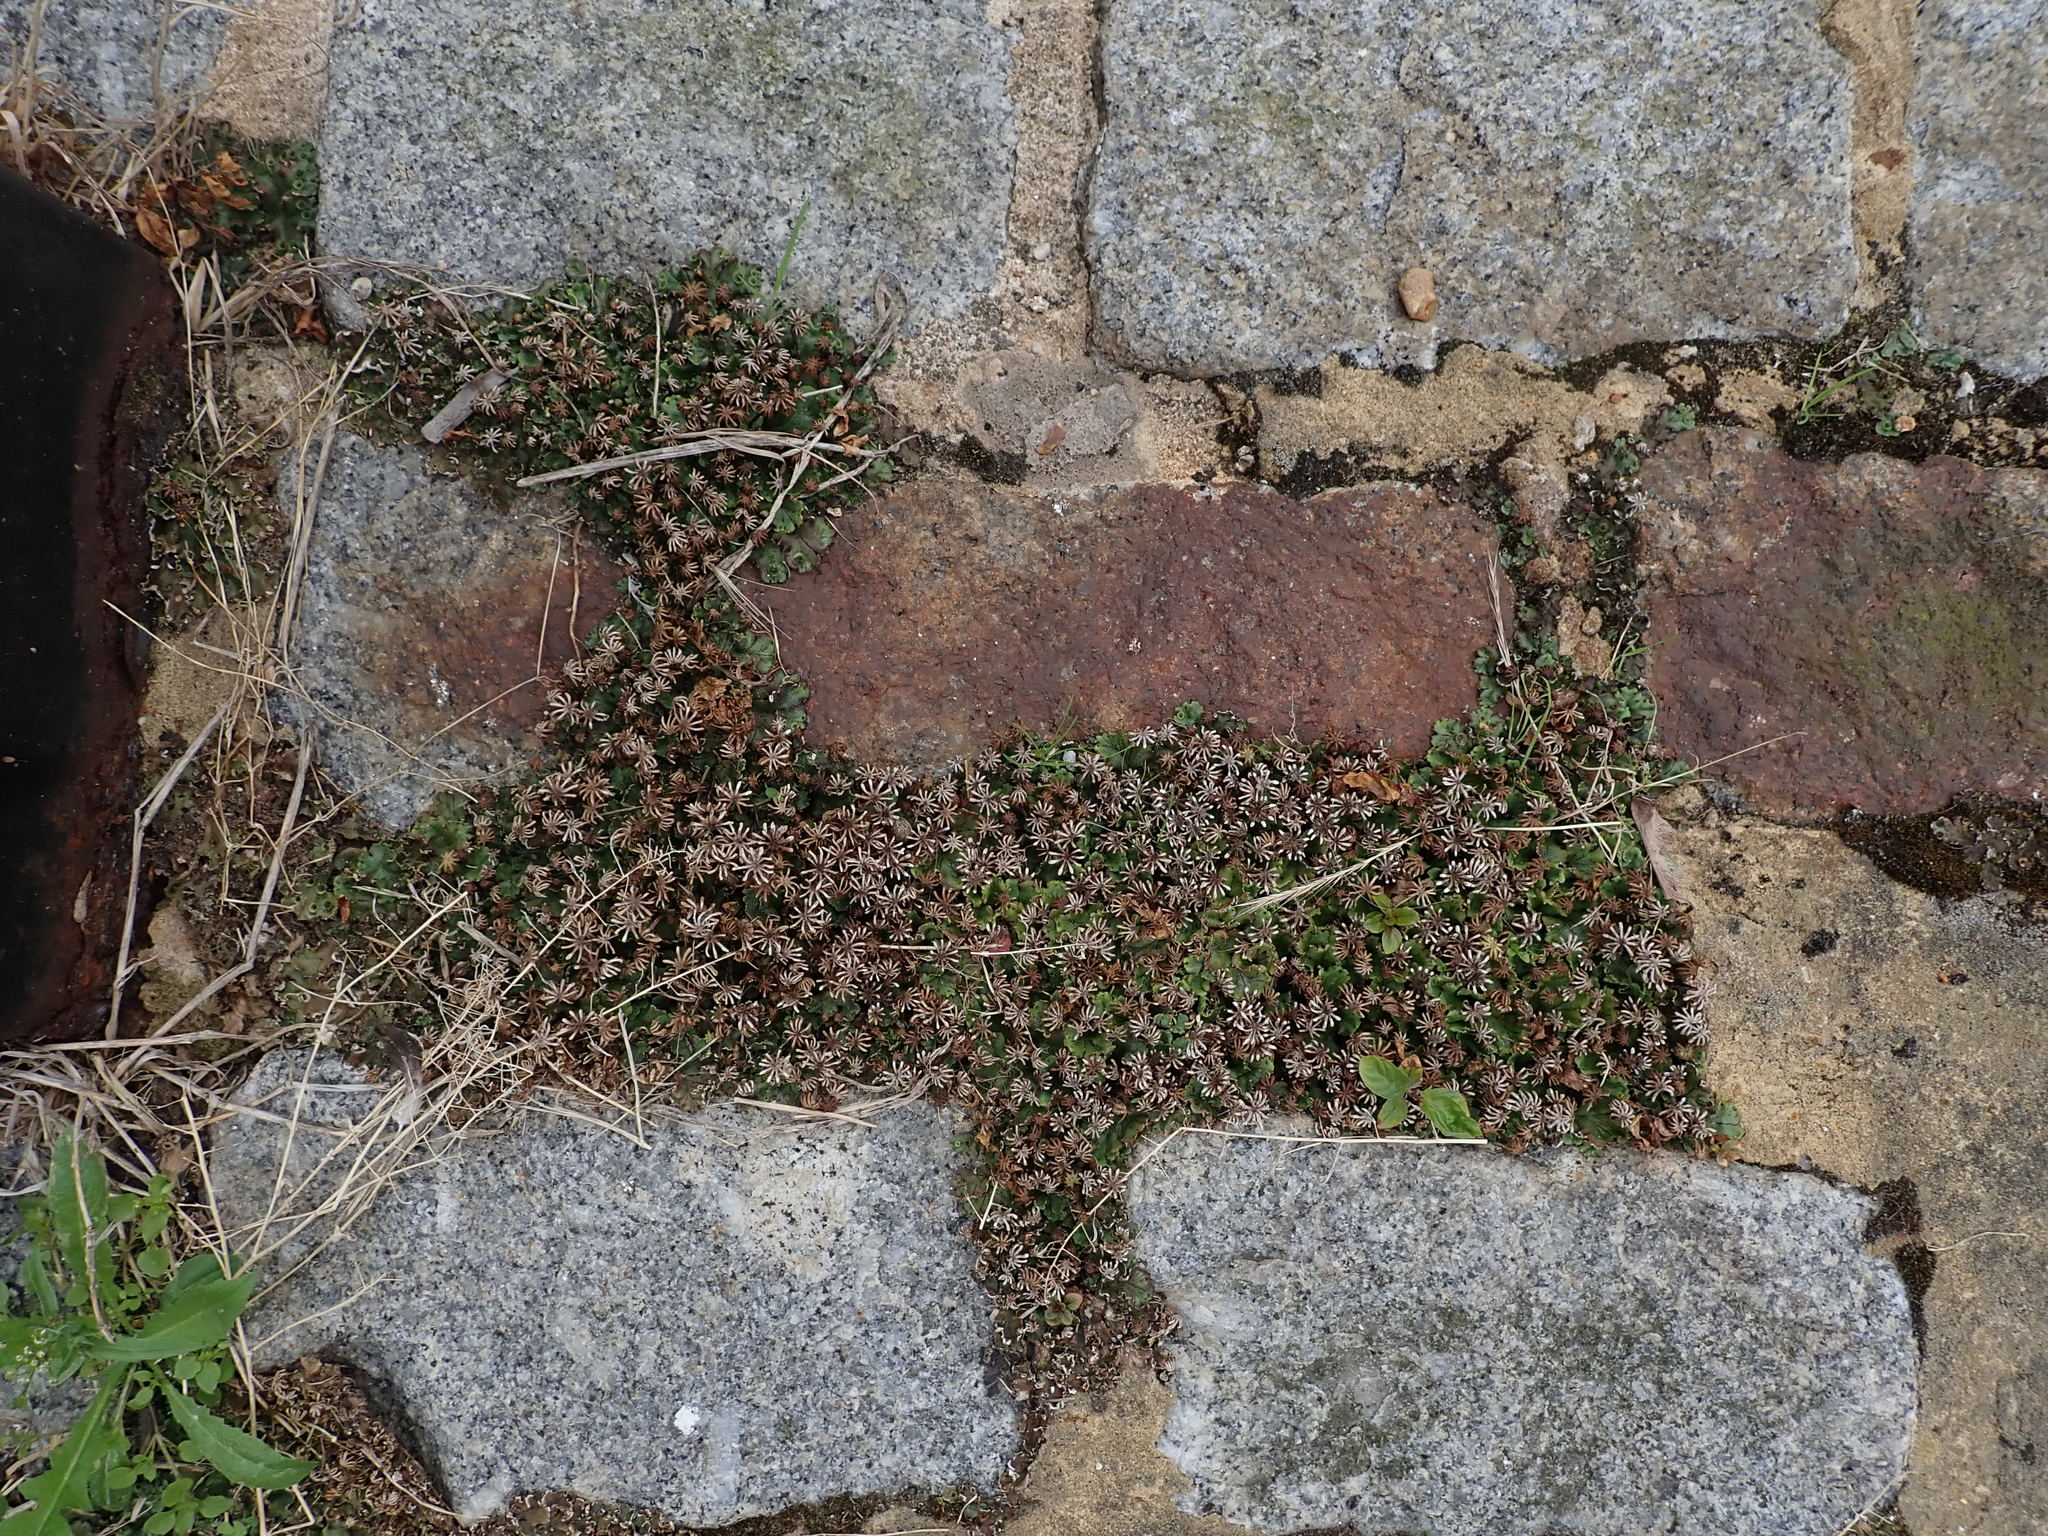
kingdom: Plantae
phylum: Marchantiophyta
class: Marchantiopsida
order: Marchantiales
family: Marchantiaceae
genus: Marchantia
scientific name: Marchantia polymorpha
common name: Common liverwort
